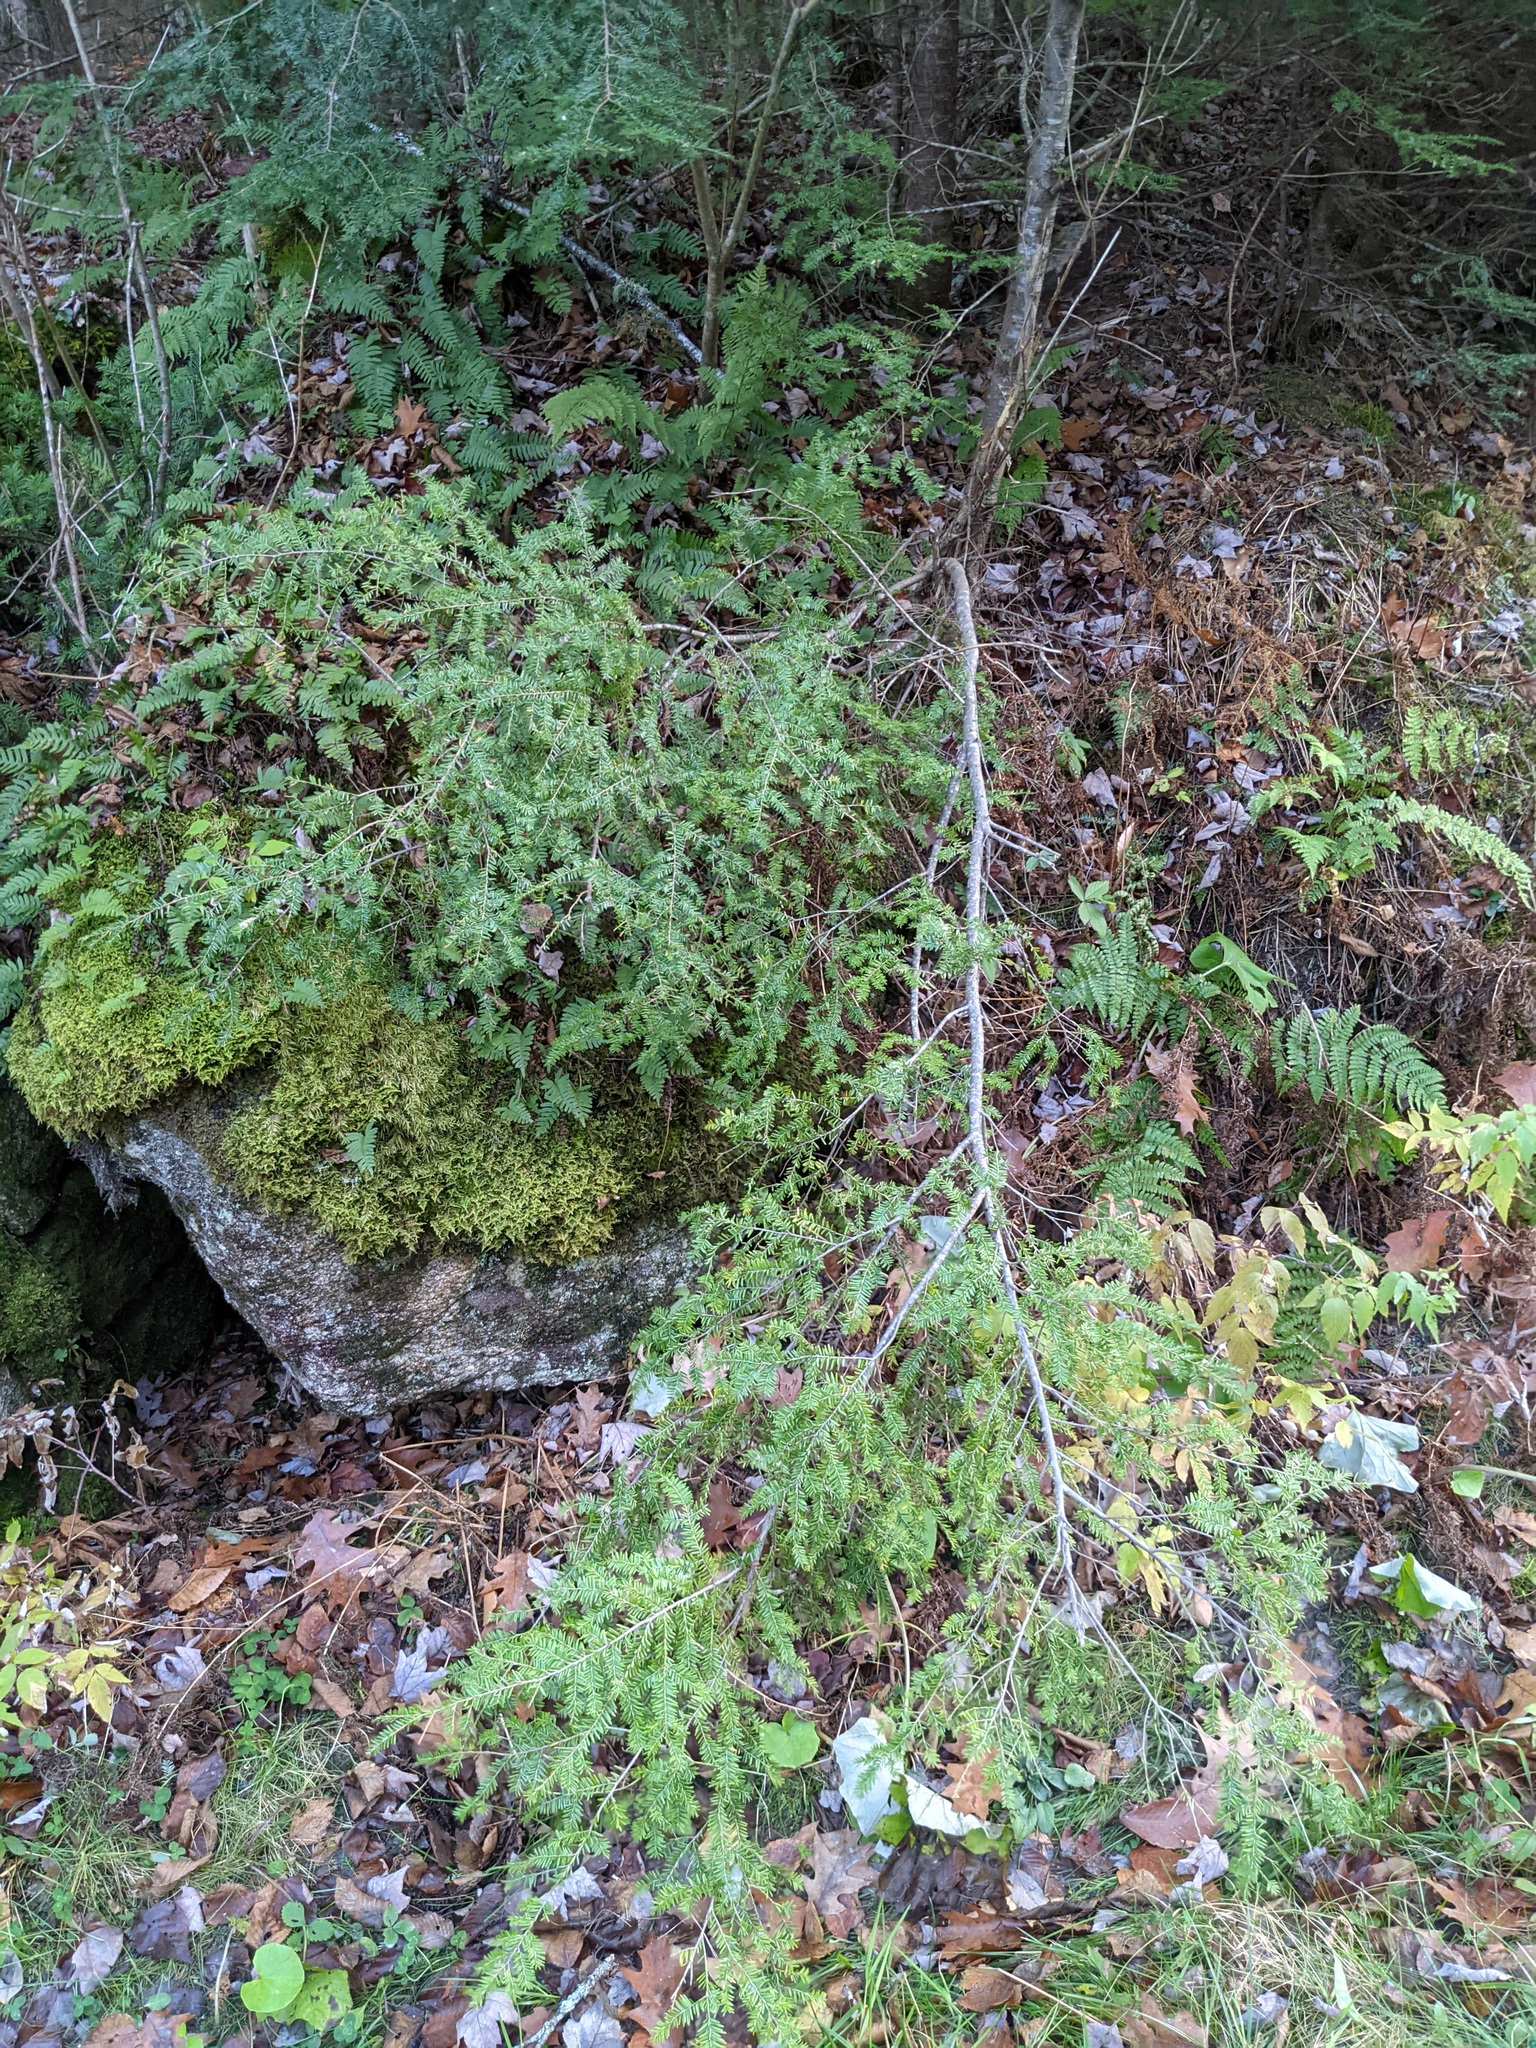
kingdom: Plantae
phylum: Tracheophyta
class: Pinopsida
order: Pinales
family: Pinaceae
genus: Tsuga
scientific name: Tsuga canadensis
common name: Eastern hemlock
